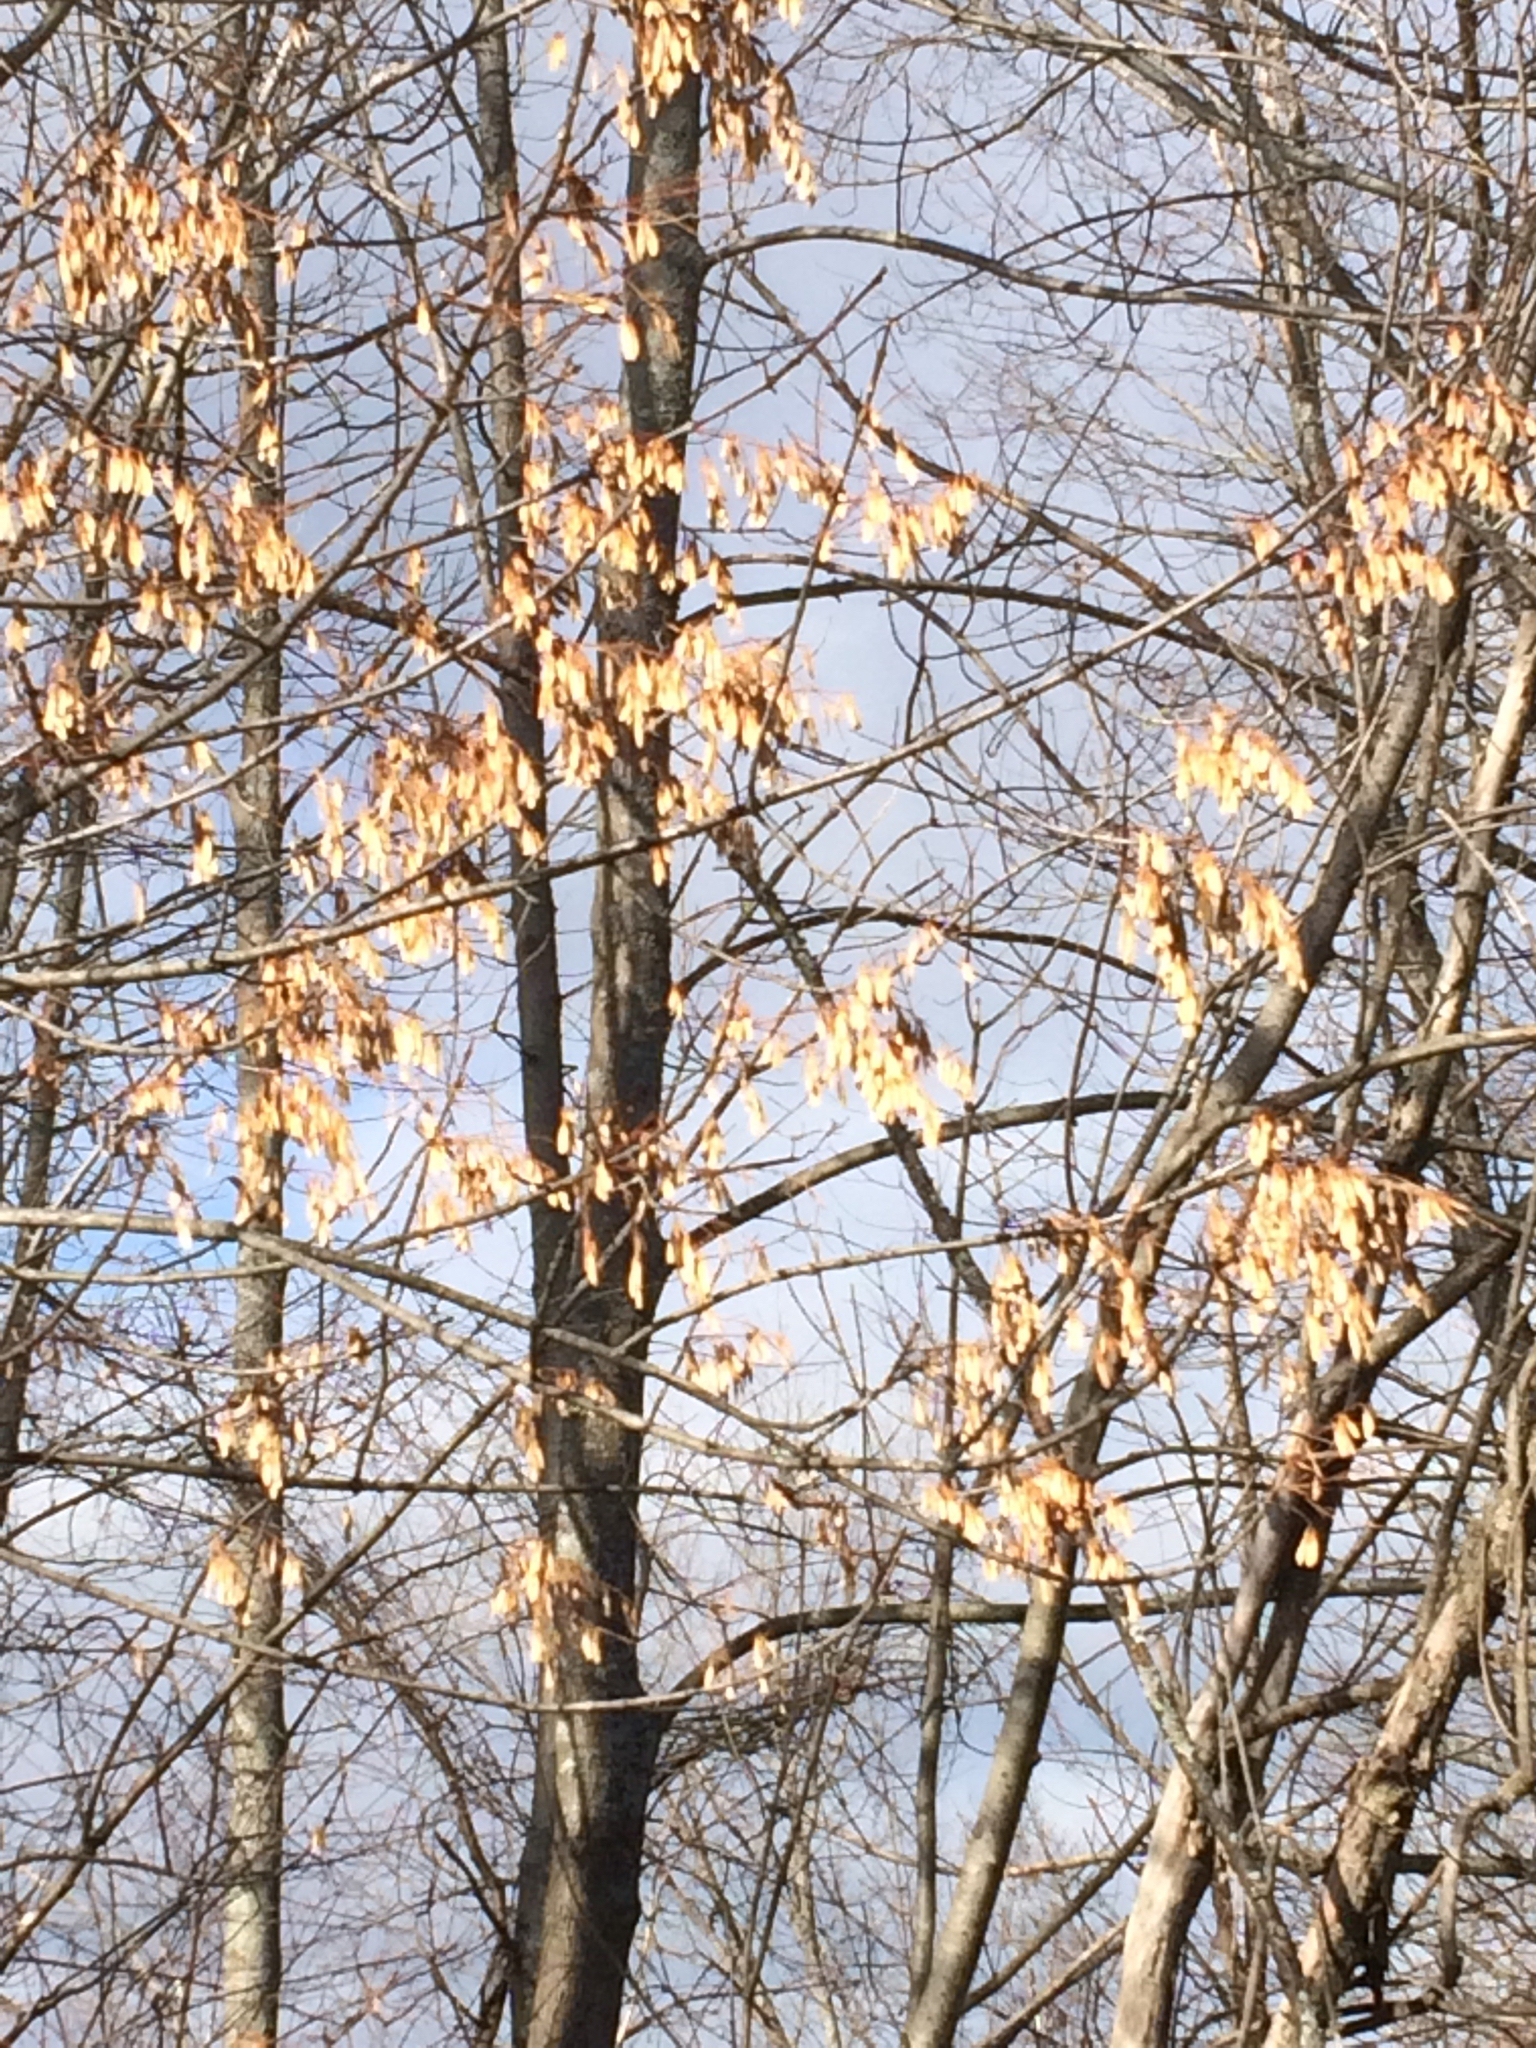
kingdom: Plantae
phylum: Tracheophyta
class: Magnoliopsida
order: Lamiales
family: Oleaceae
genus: Fraxinus
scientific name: Fraxinus americana
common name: White ash
